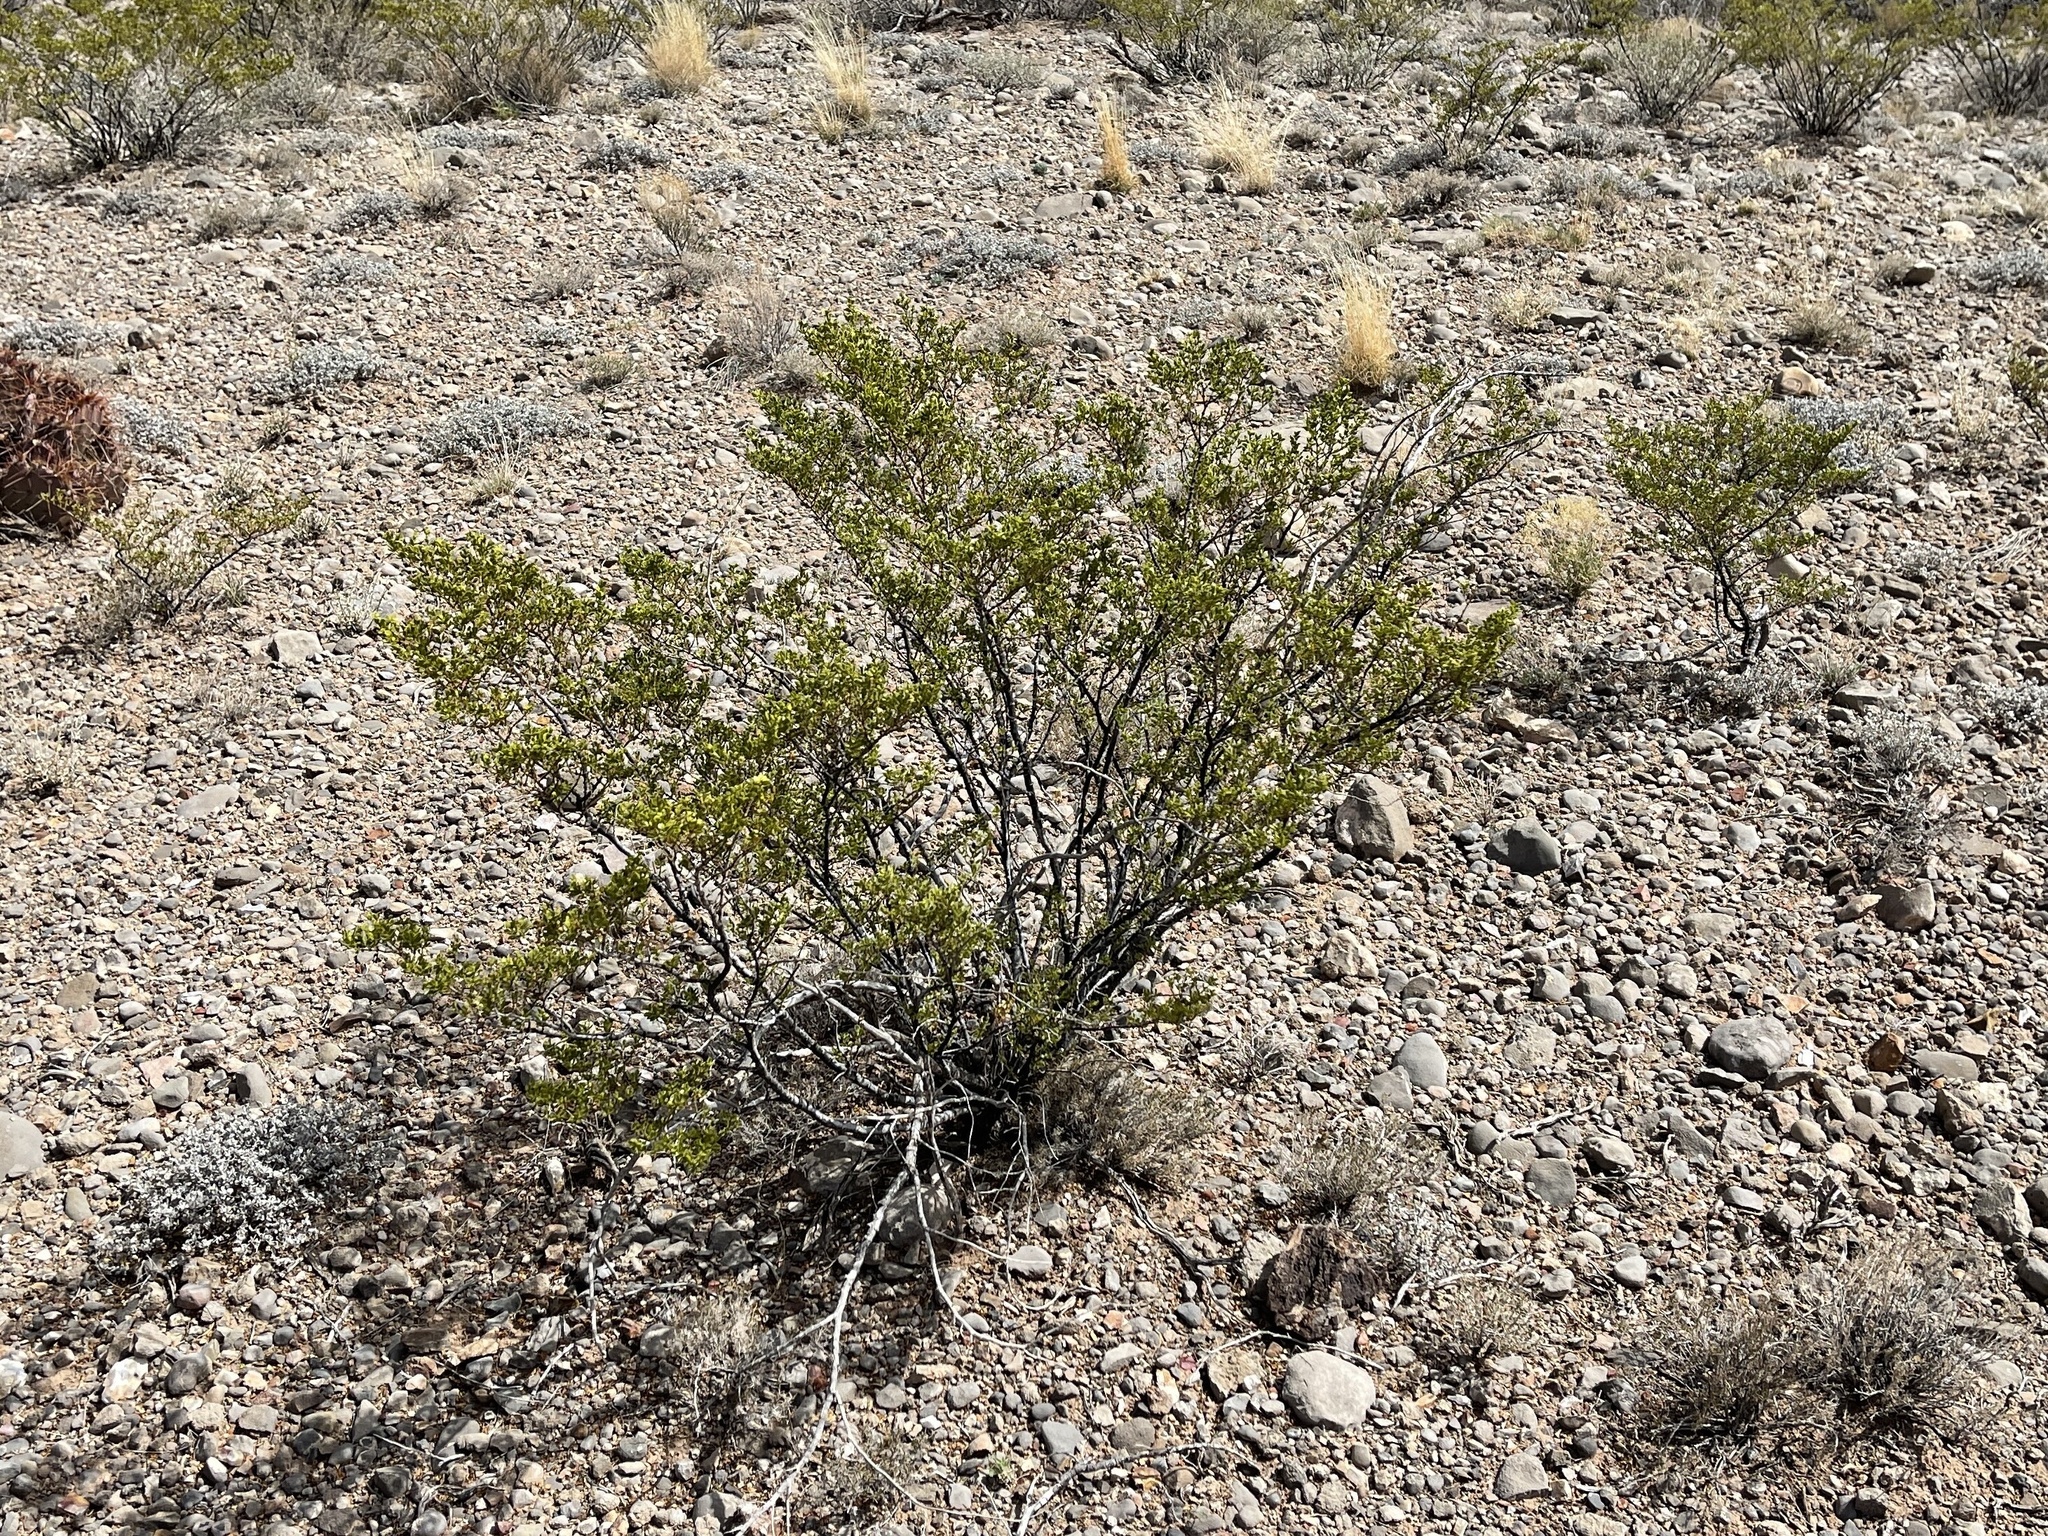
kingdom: Plantae
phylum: Tracheophyta
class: Magnoliopsida
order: Zygophyllales
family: Zygophyllaceae
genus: Larrea
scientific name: Larrea tridentata
